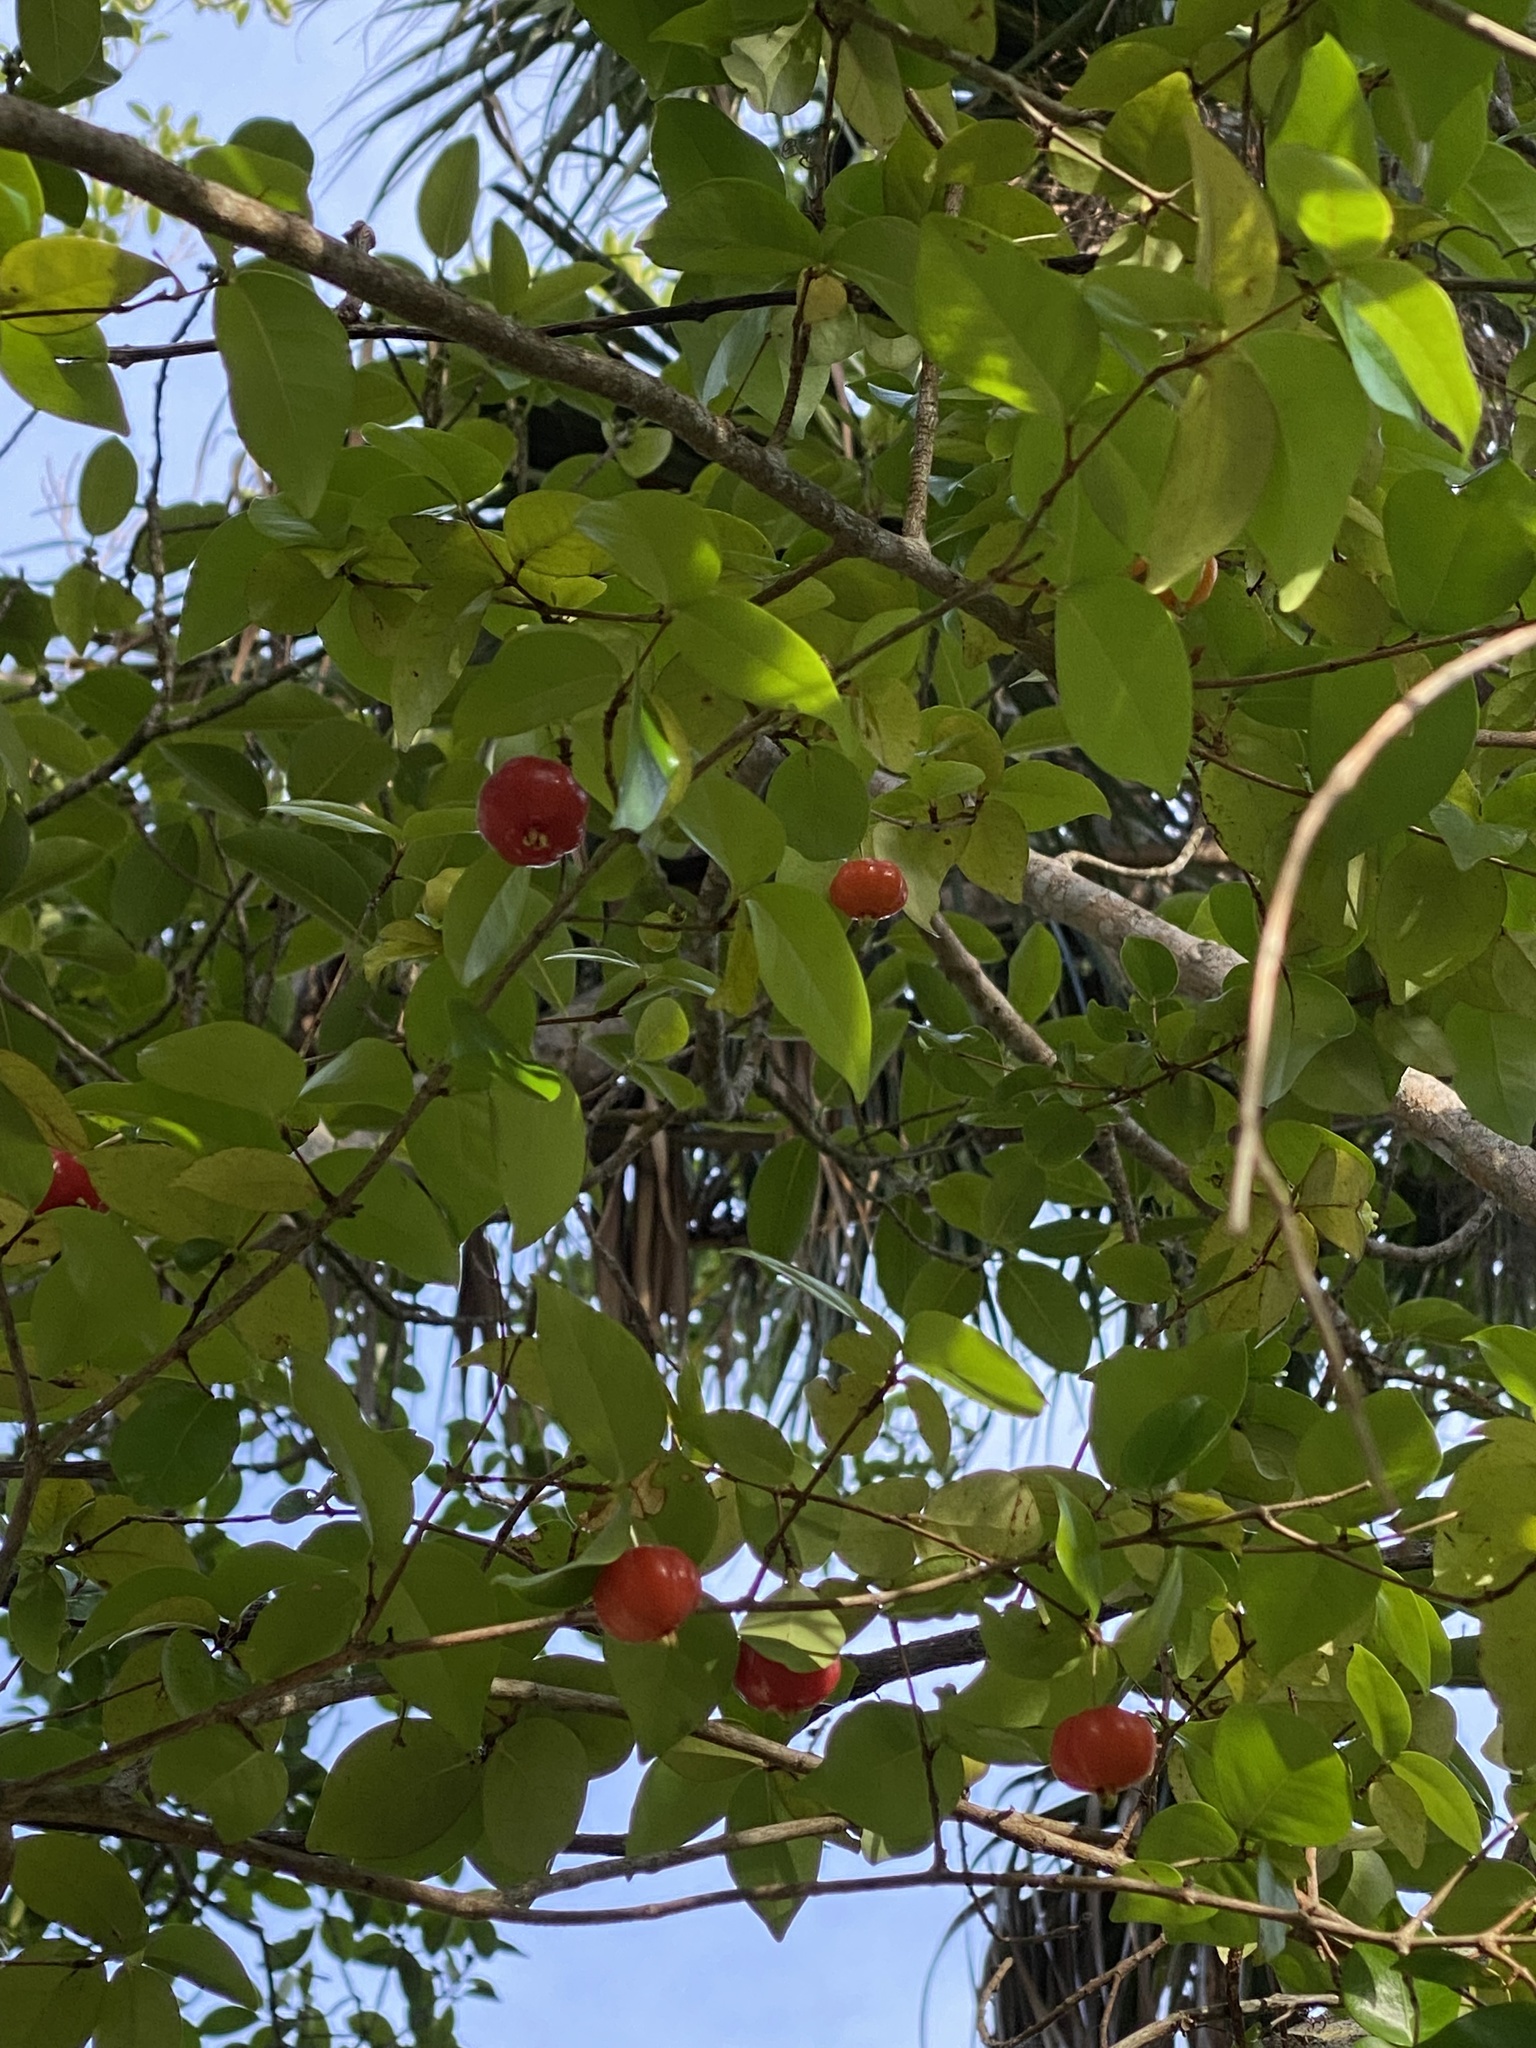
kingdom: Plantae
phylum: Tracheophyta
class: Magnoliopsida
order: Myrtales
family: Myrtaceae
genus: Eugenia
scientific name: Eugenia uniflora
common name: Surinam cherry
